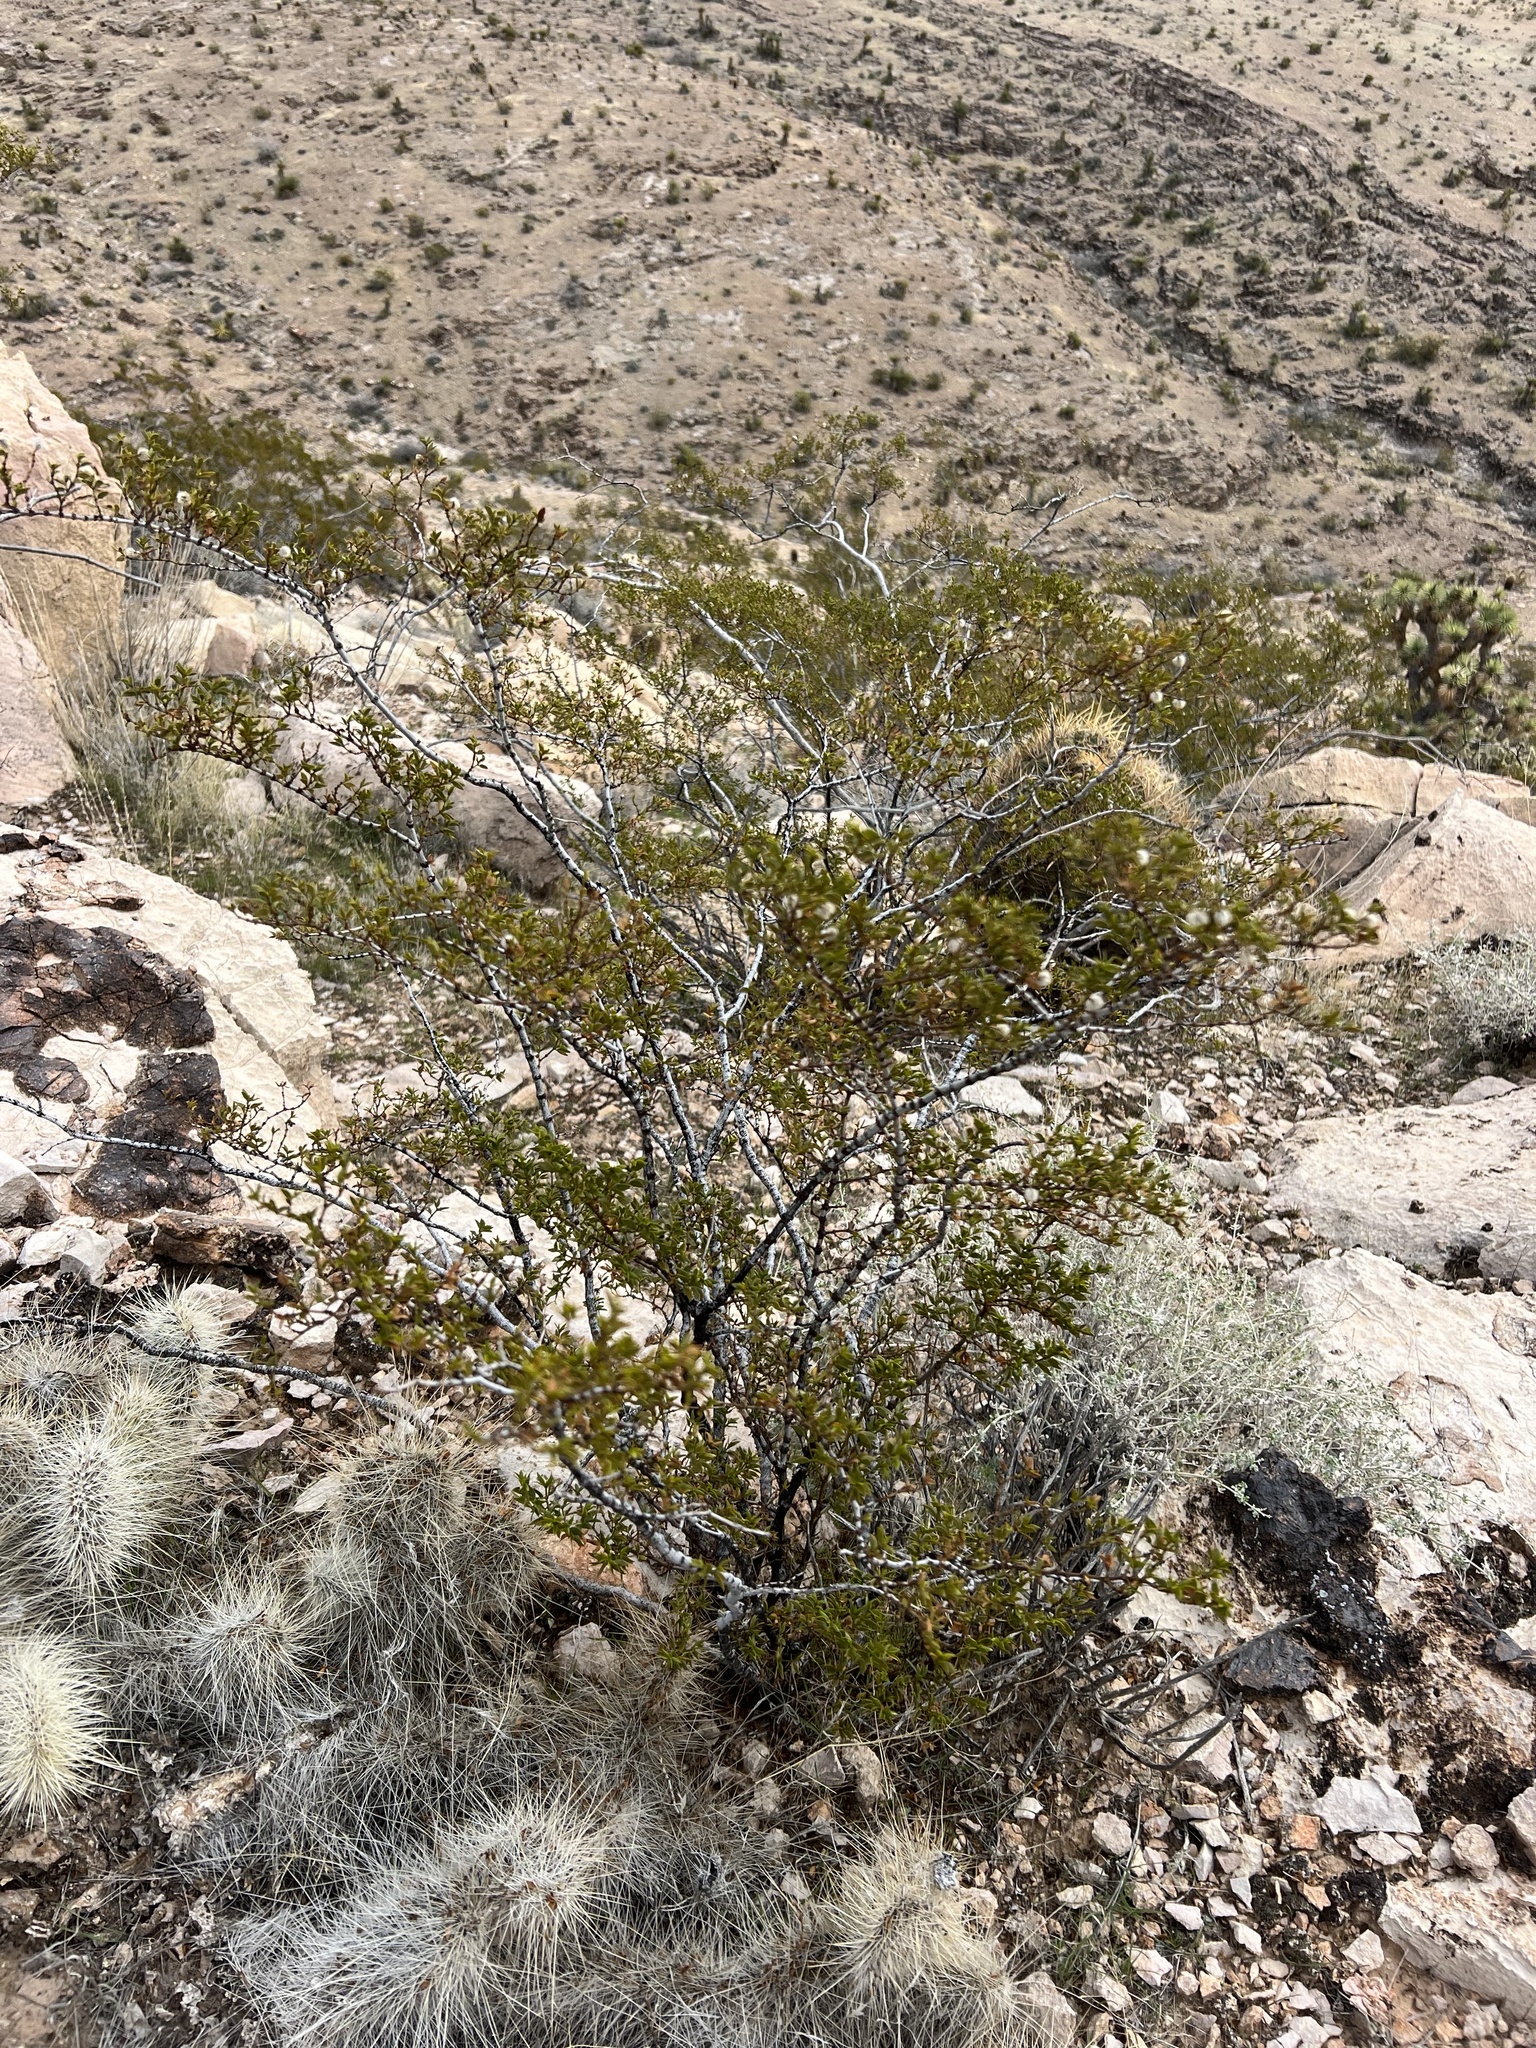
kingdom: Plantae
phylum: Tracheophyta
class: Magnoliopsida
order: Zygophyllales
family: Zygophyllaceae
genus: Larrea
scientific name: Larrea tridentata
